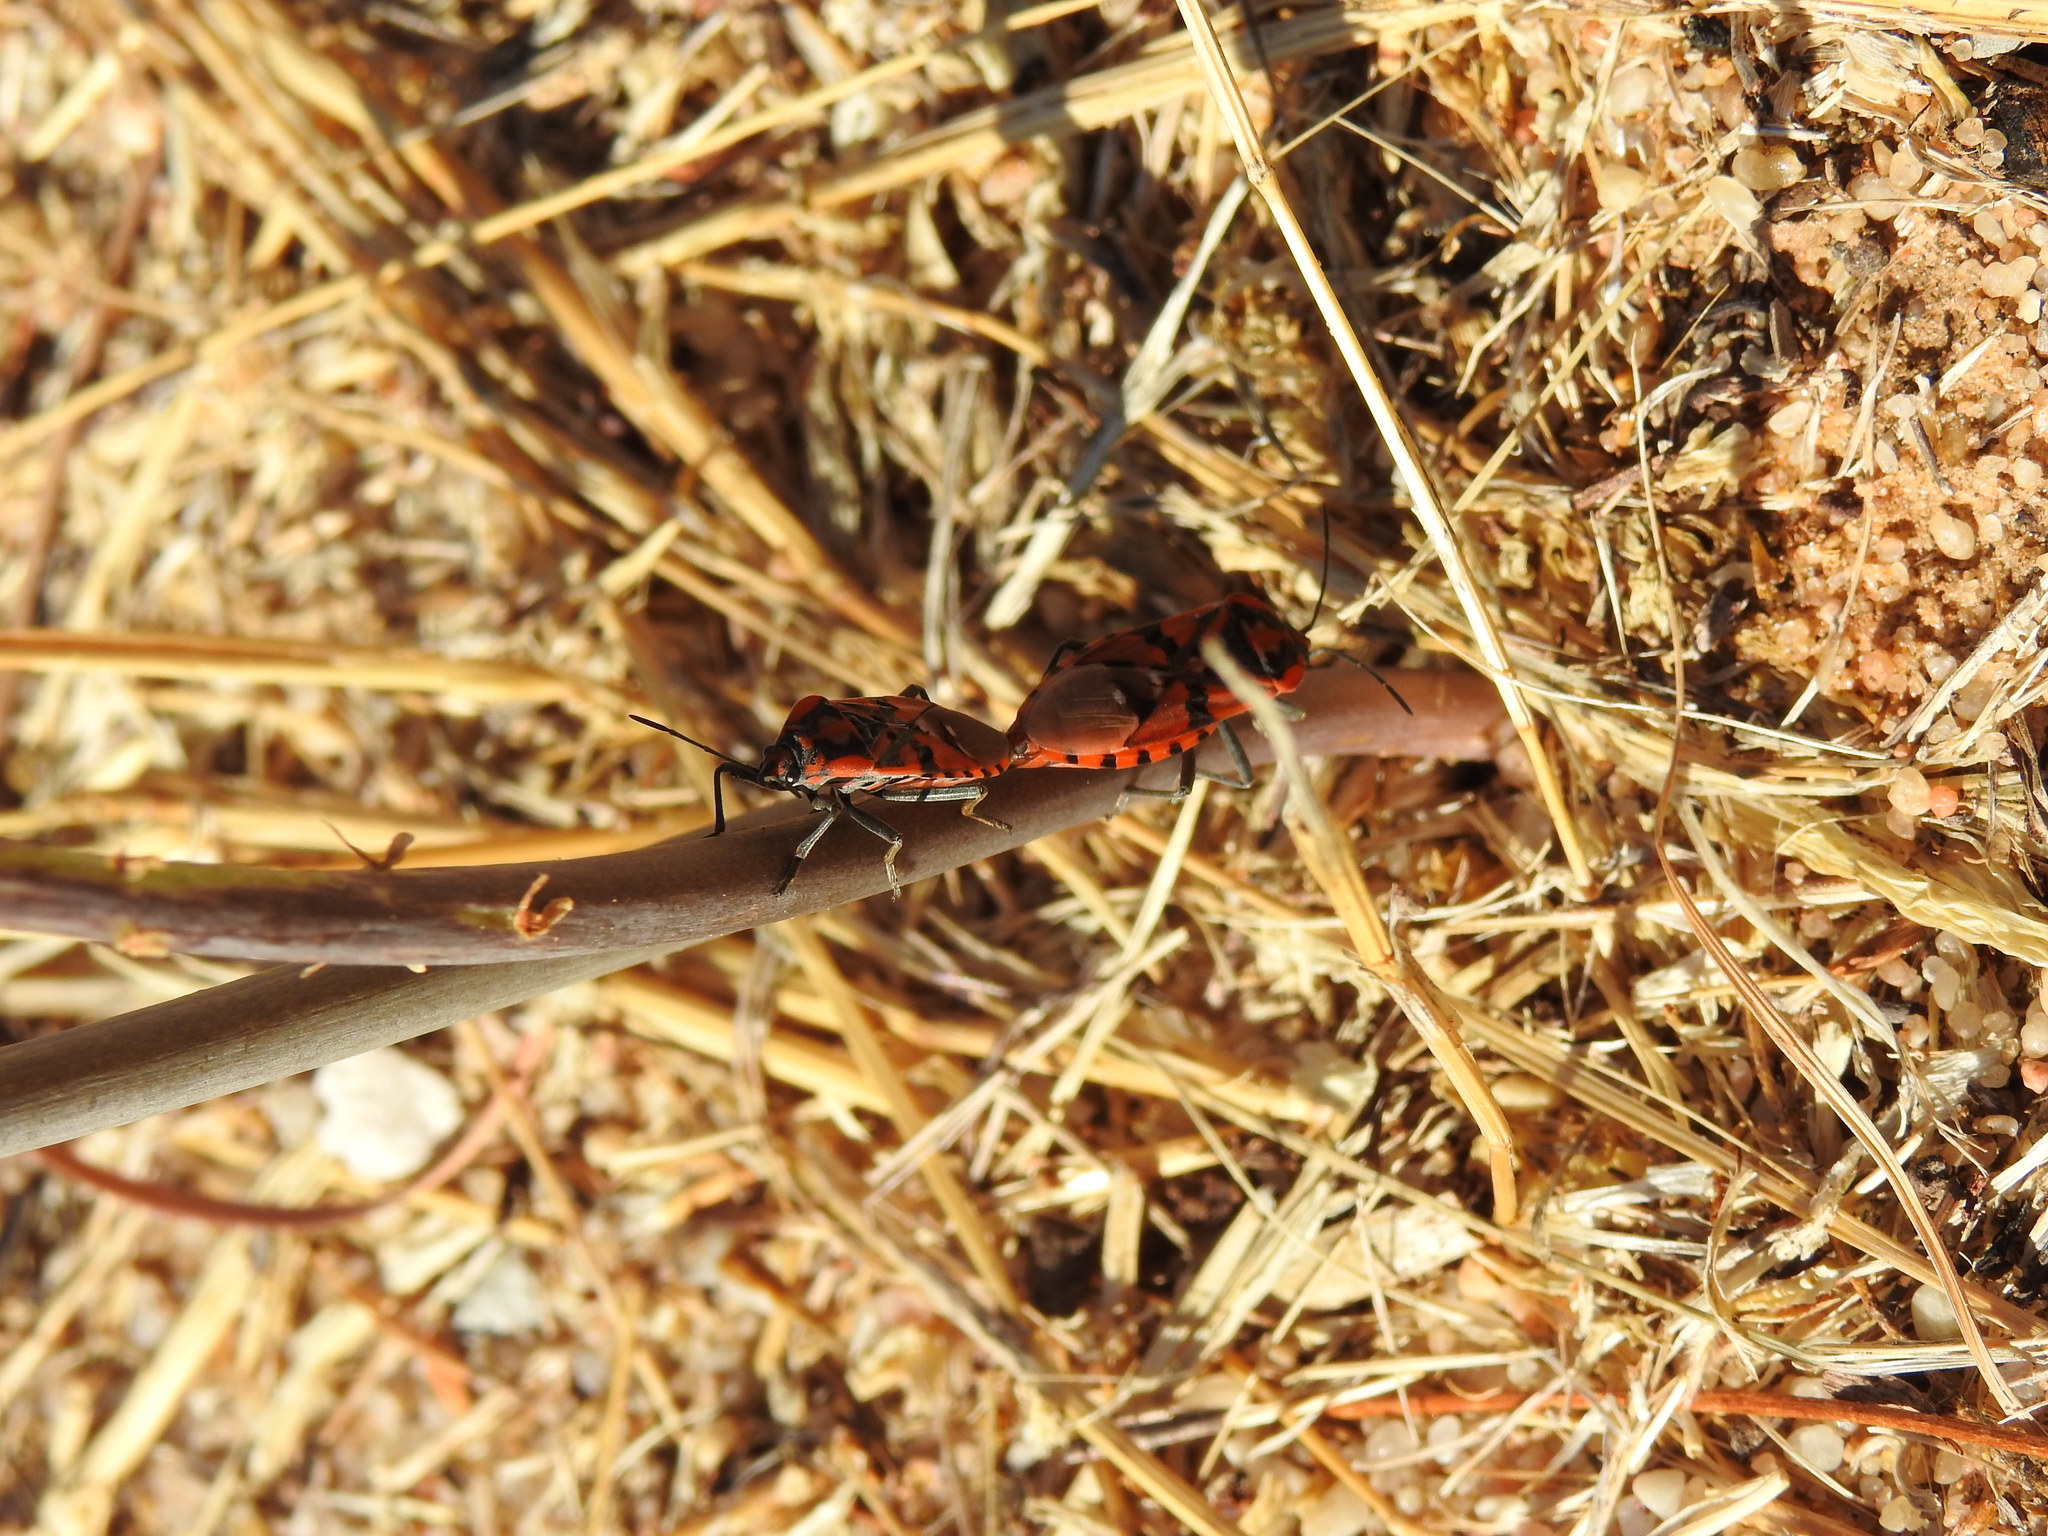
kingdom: Animalia
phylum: Arthropoda
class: Insecta
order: Hemiptera
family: Lygaeidae
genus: Spilostethus
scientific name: Spilostethus pandurus
